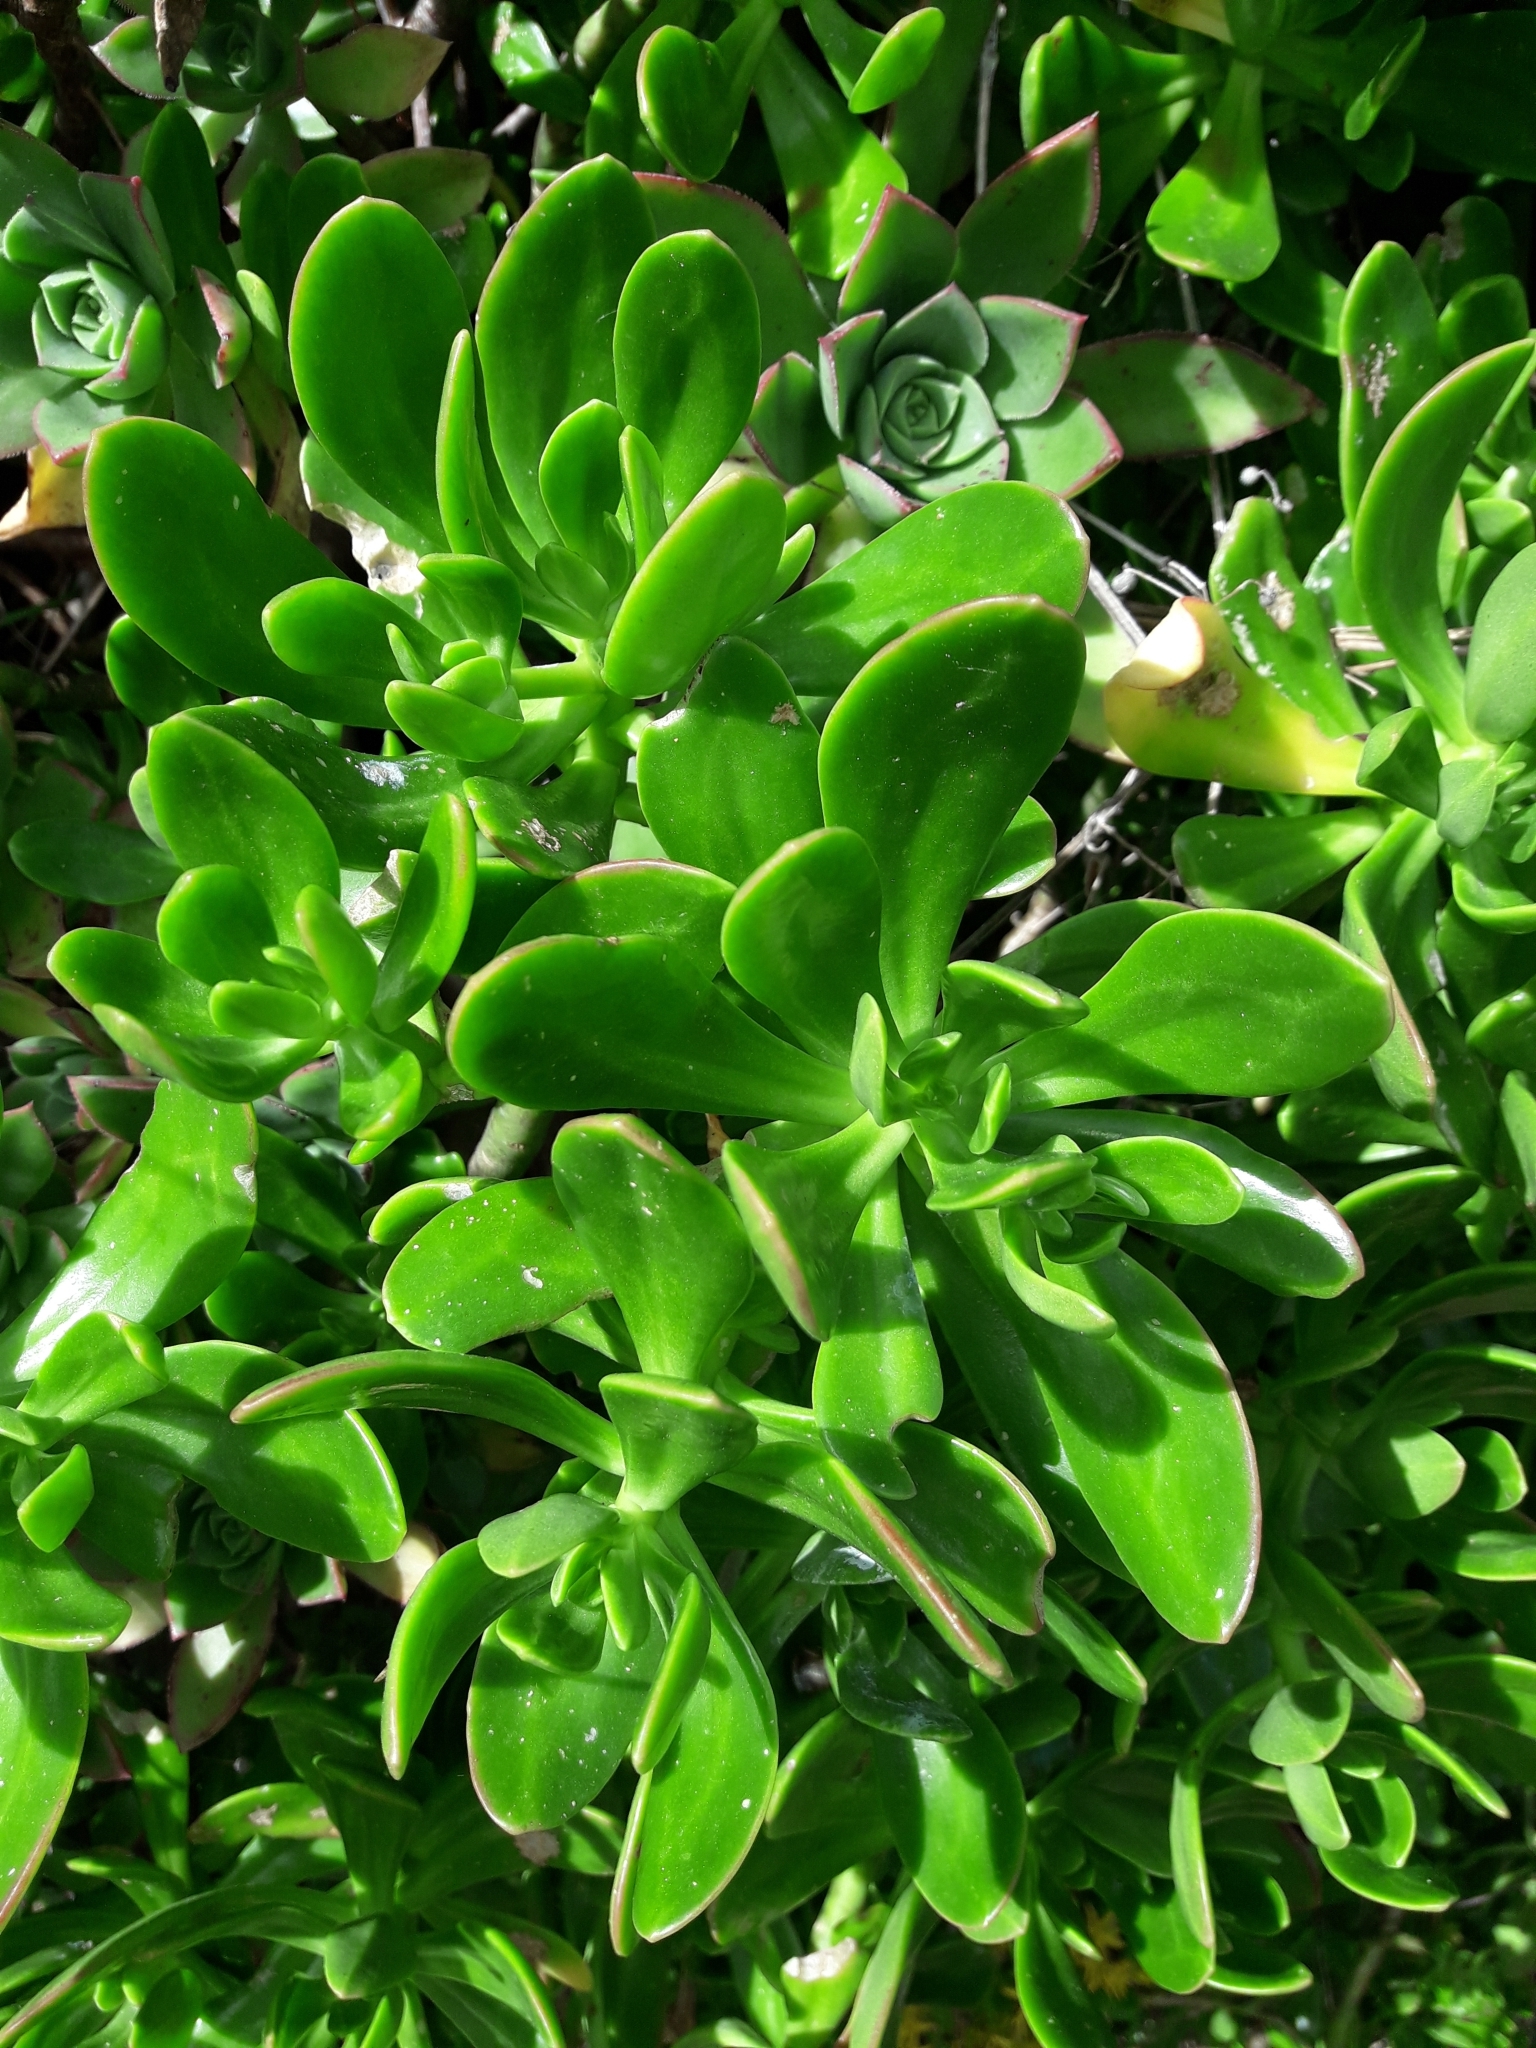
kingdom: Plantae
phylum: Tracheophyta
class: Magnoliopsida
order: Saxifragales
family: Crassulaceae
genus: Sedum
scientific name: Sedum praealtum
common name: Greater mexican-stonecrop
